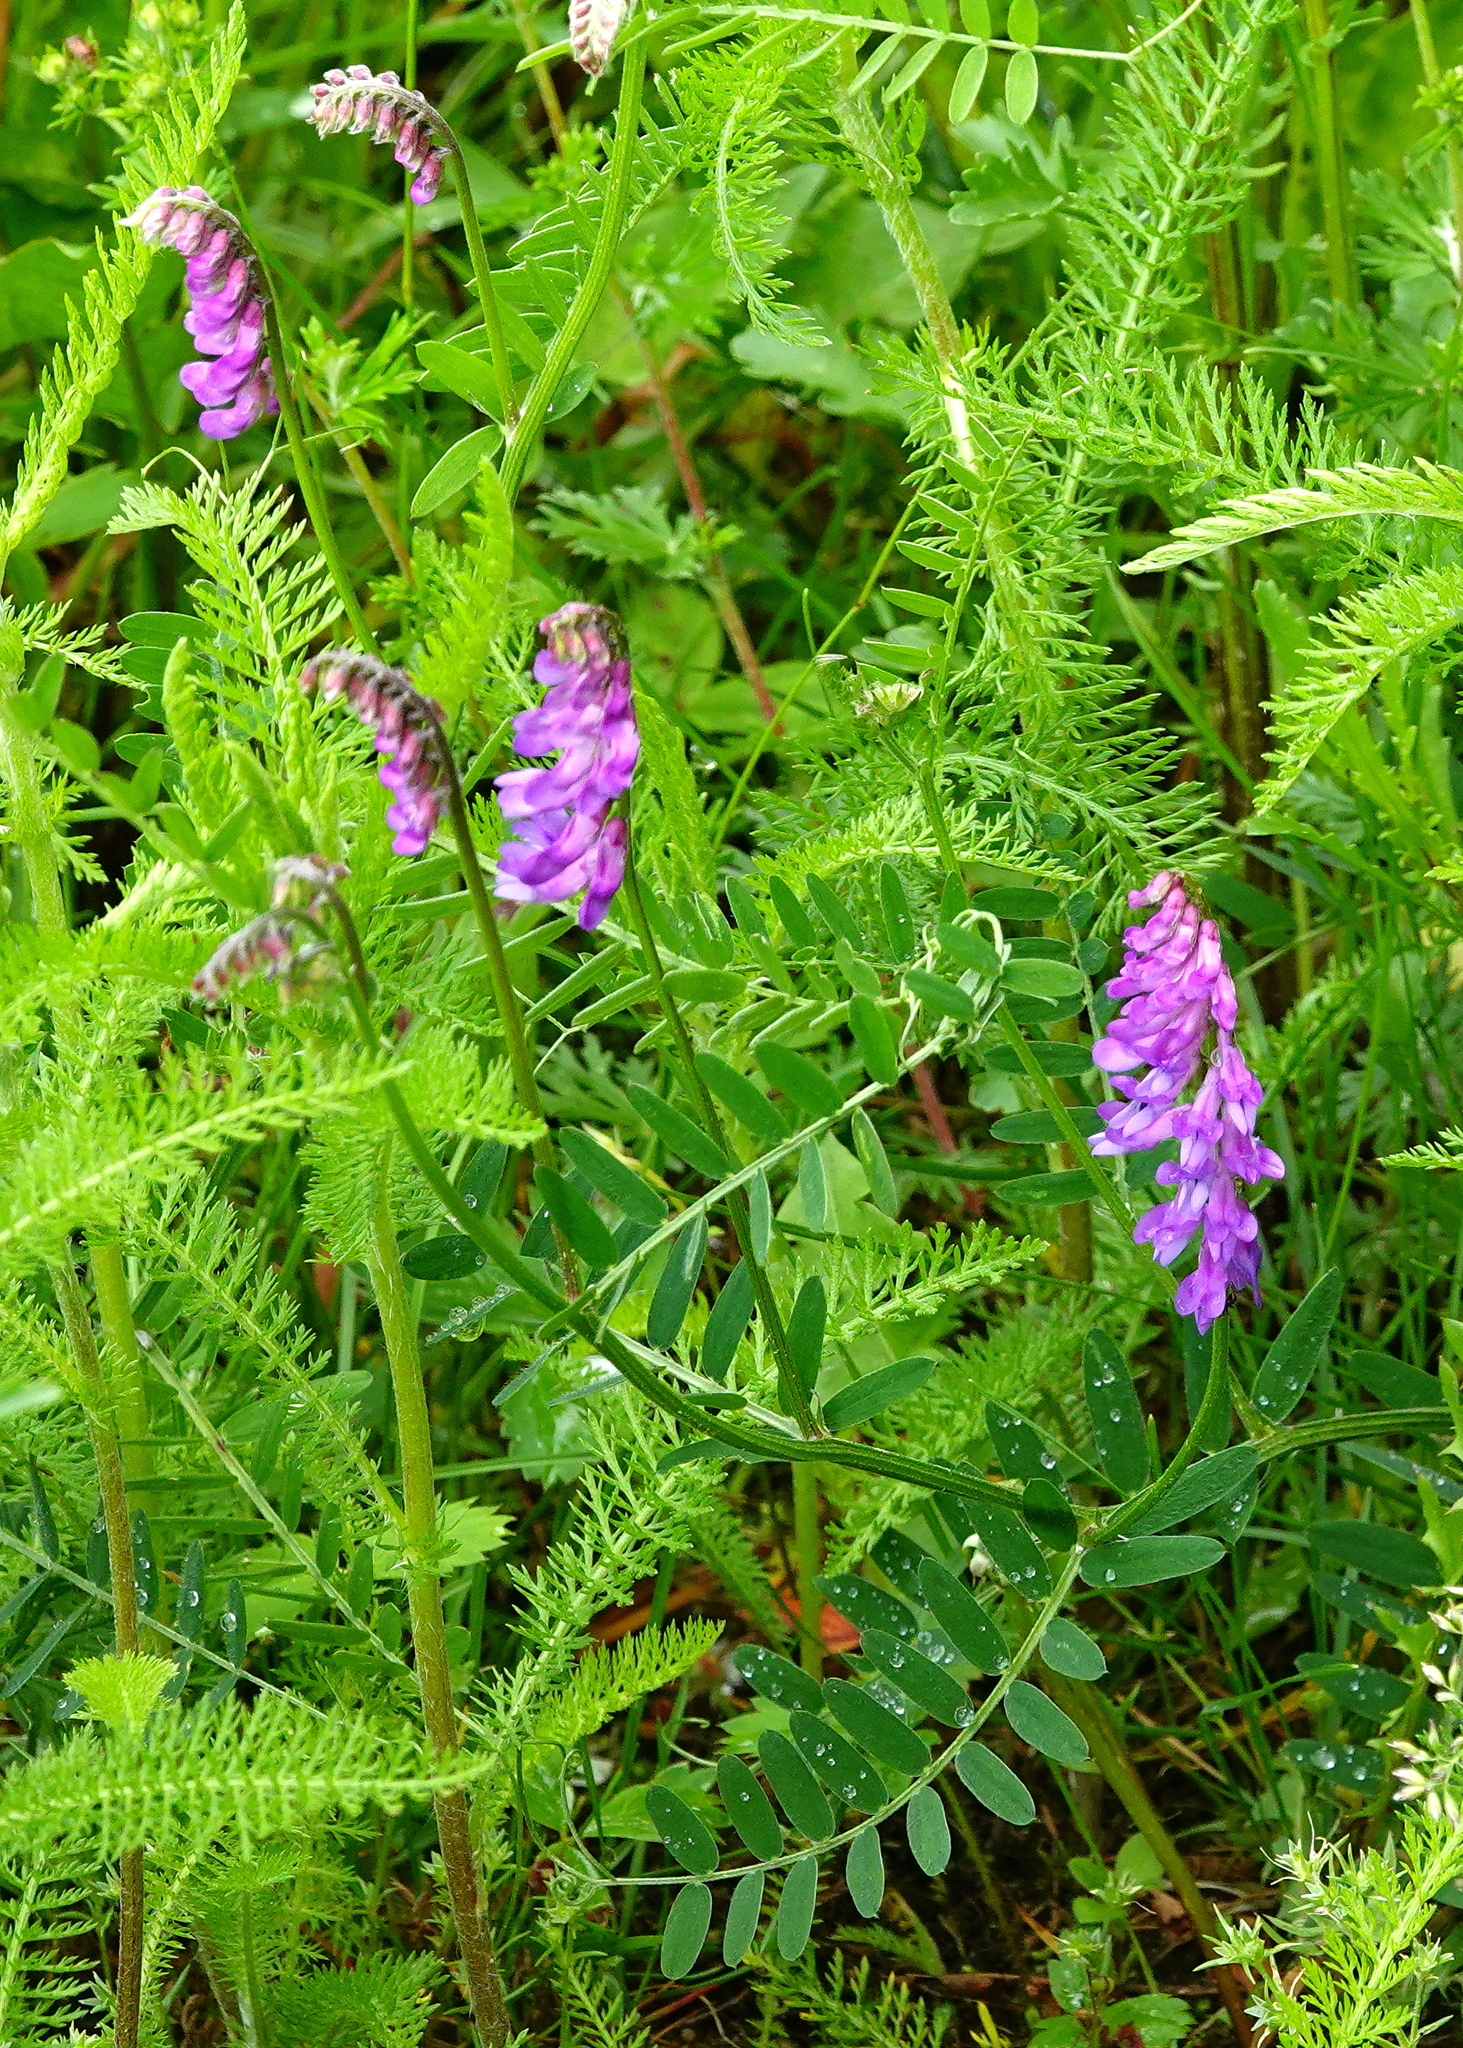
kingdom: Plantae
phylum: Tracheophyta
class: Magnoliopsida
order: Fabales
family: Fabaceae
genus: Vicia
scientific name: Vicia cracca
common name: Bird vetch
